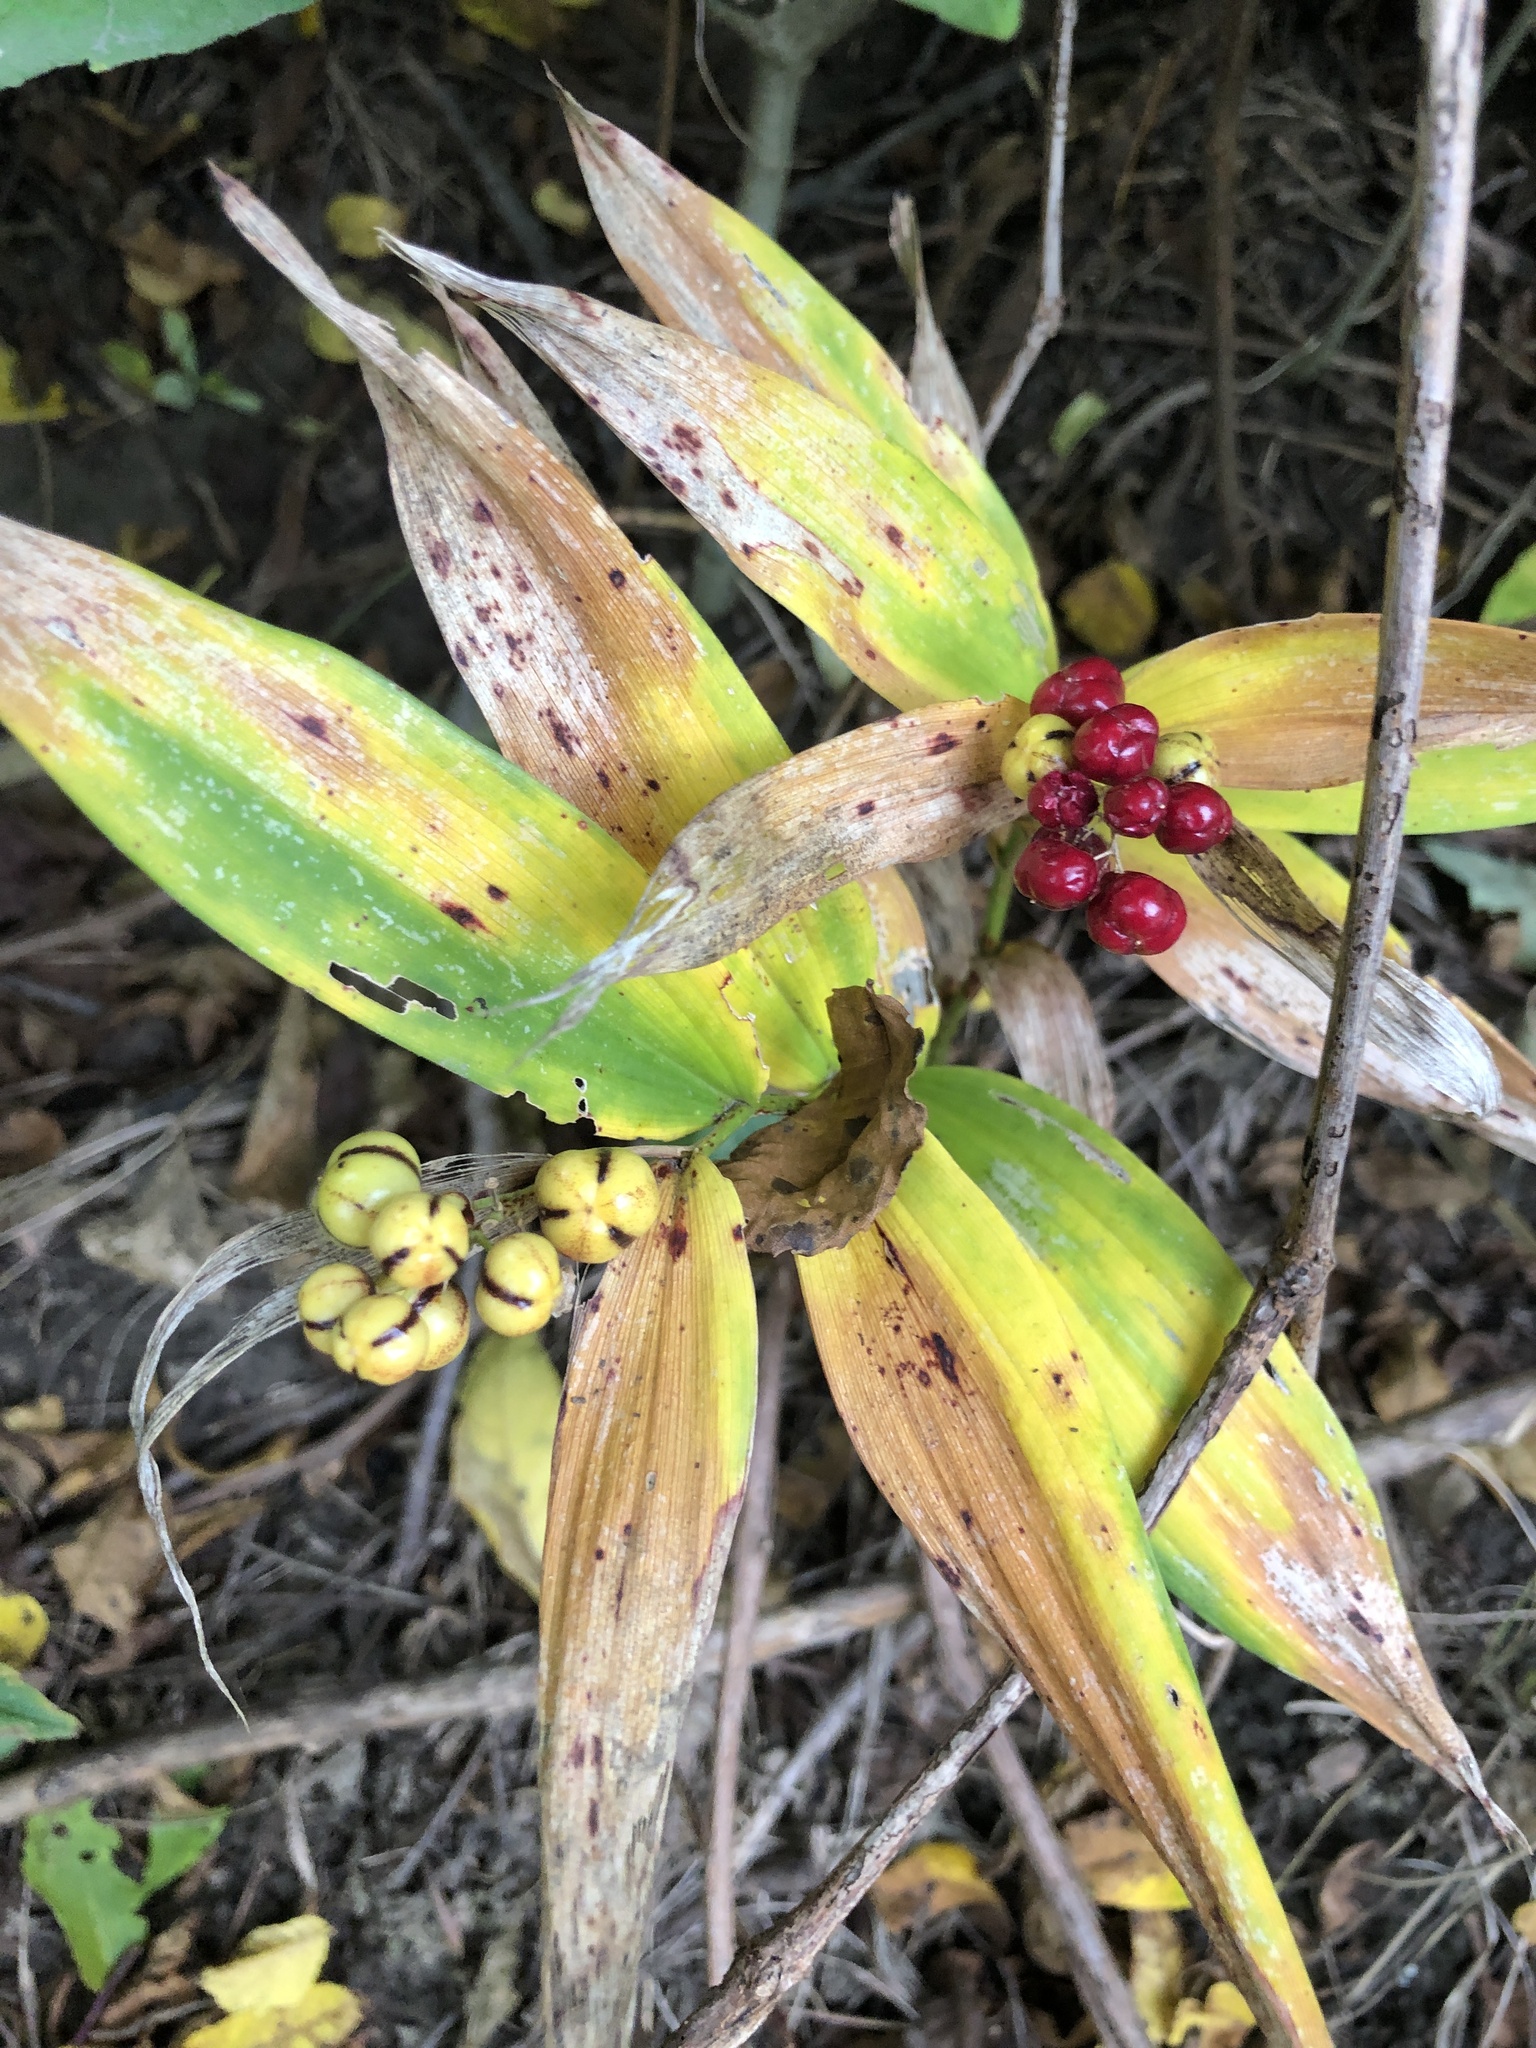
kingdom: Plantae
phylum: Tracheophyta
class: Liliopsida
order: Asparagales
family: Asparagaceae
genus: Maianthemum
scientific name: Maianthemum stellatum
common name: Little false solomon's seal
